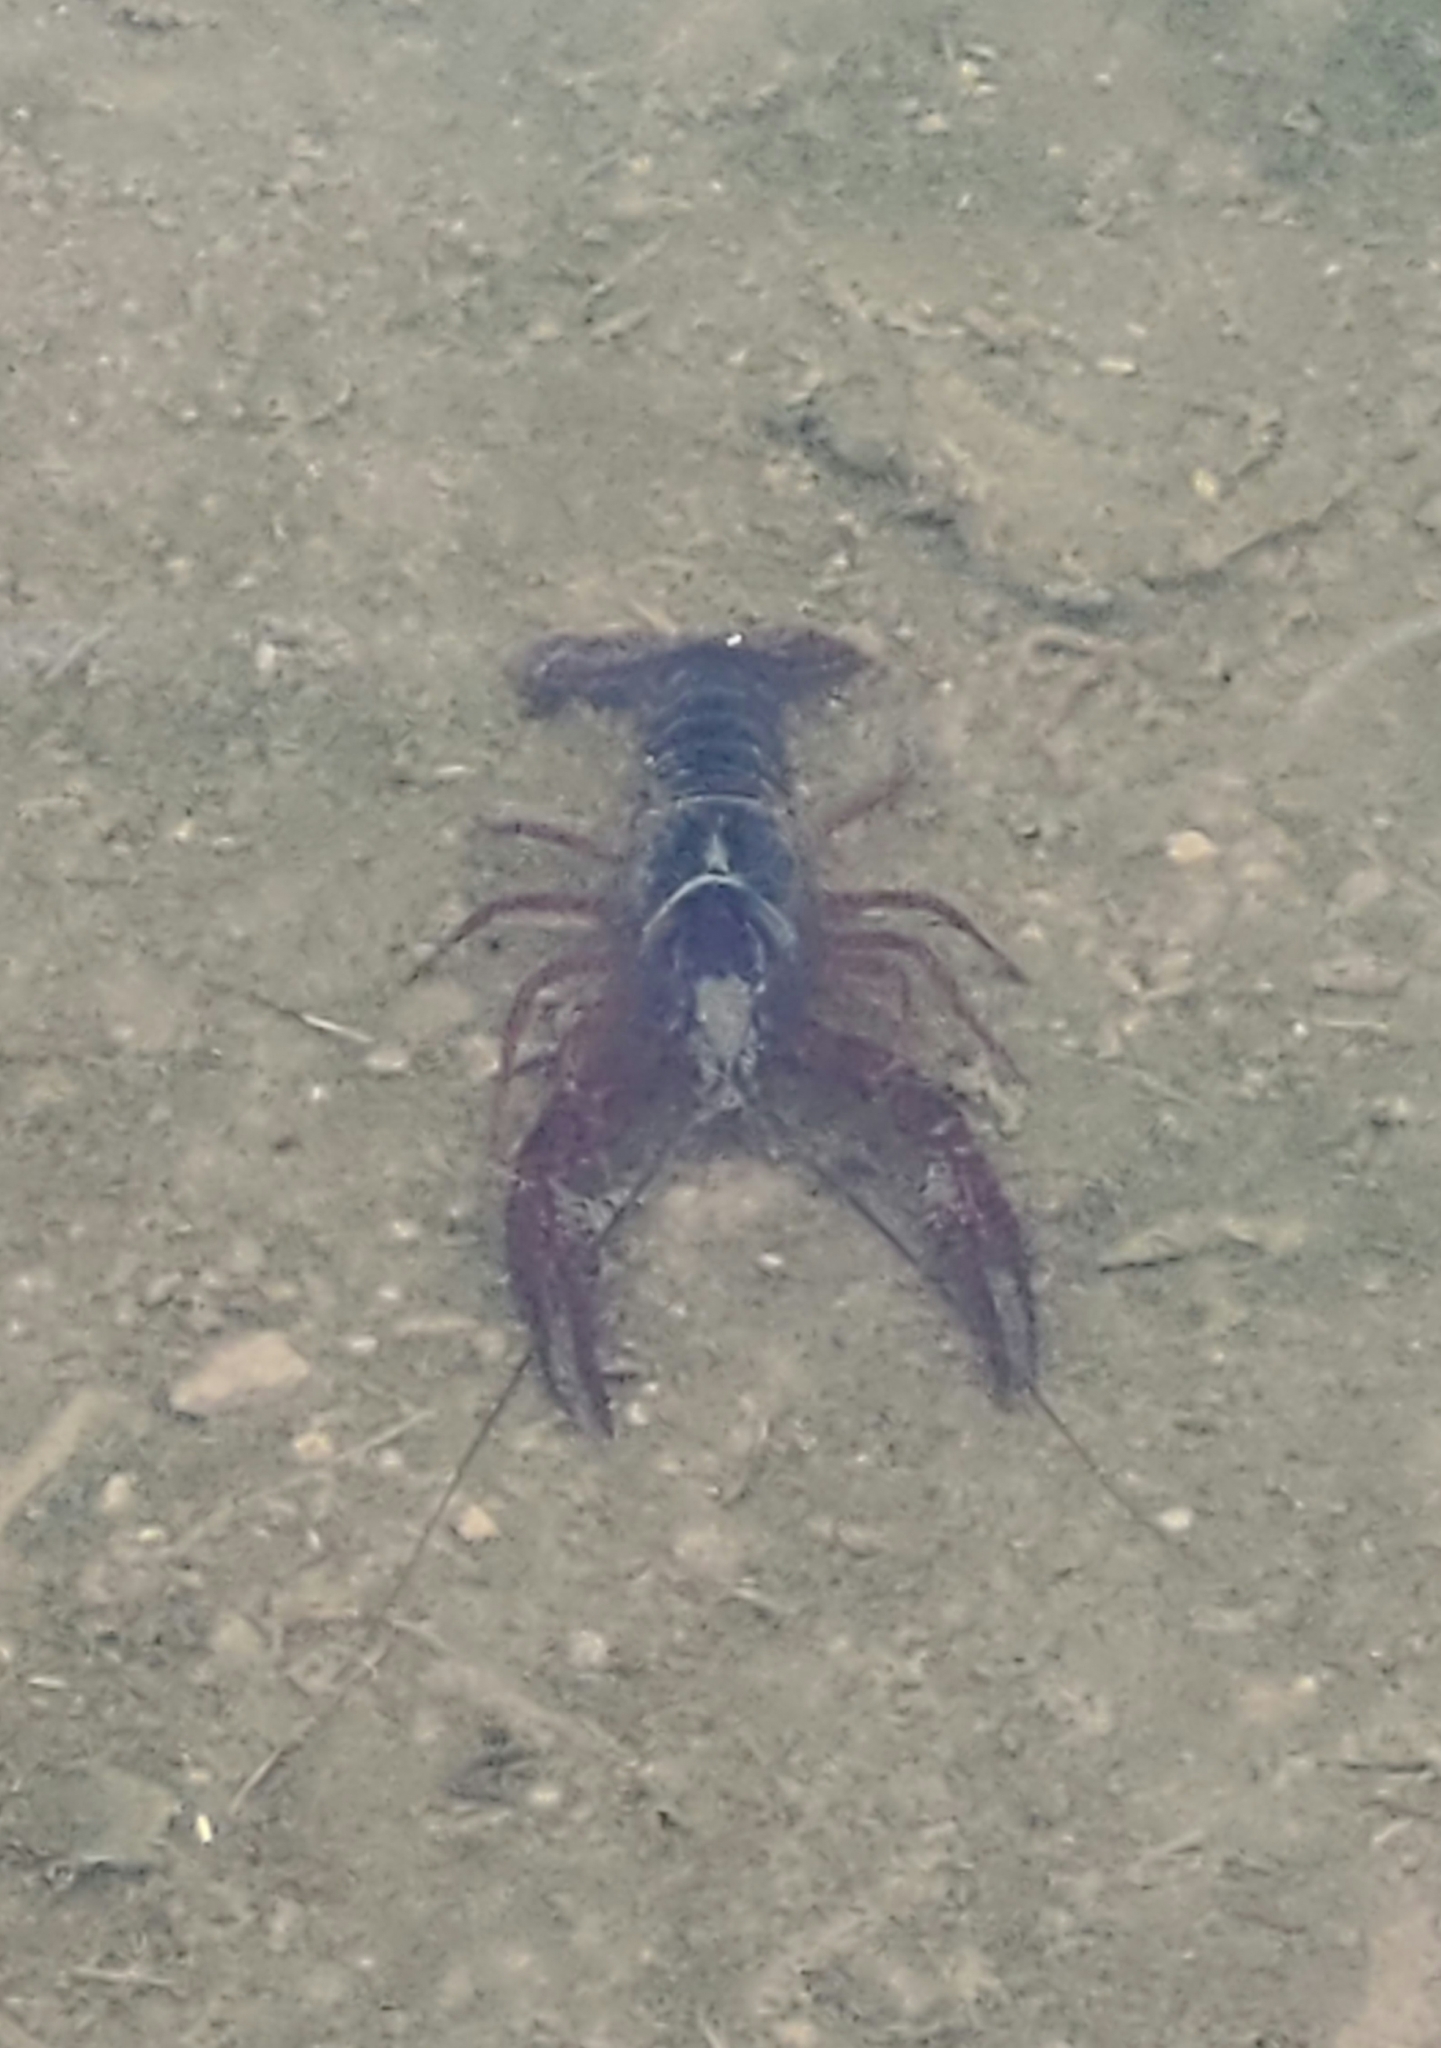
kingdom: Animalia
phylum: Arthropoda
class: Malacostraca
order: Decapoda
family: Cambaridae
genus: Procambarus
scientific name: Procambarus clarkii
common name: Red swamp crayfish
